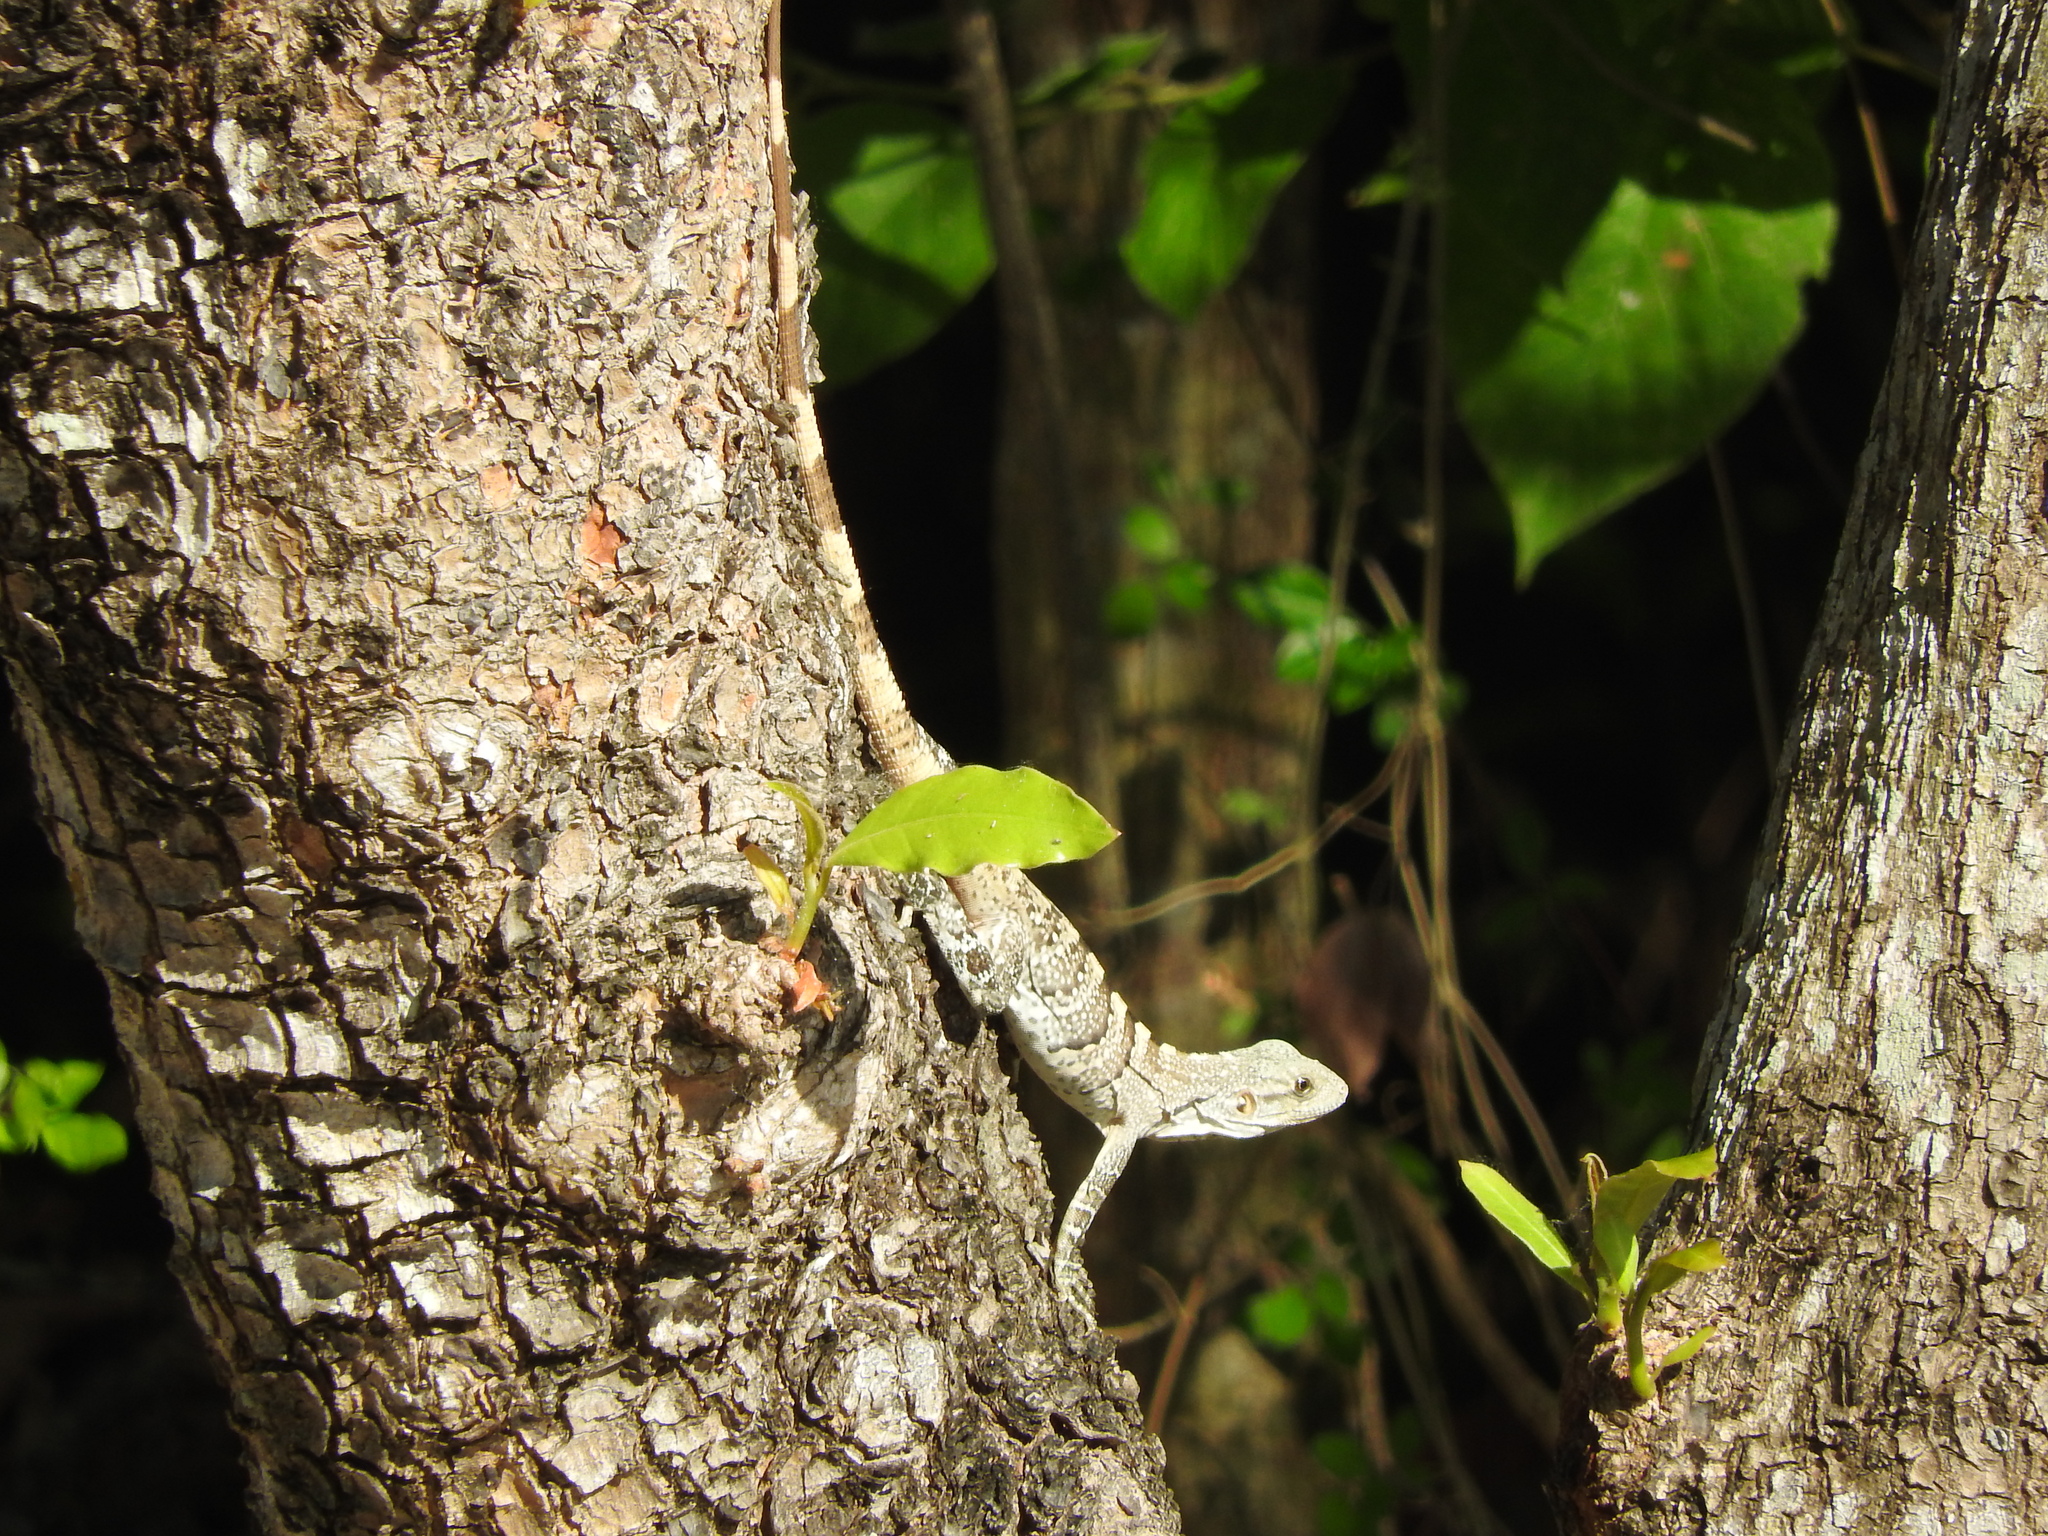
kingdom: Animalia
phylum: Chordata
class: Squamata
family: Iguanidae
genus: Ctenosaura
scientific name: Ctenosaura similis
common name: Black spiny-tailed iguana
